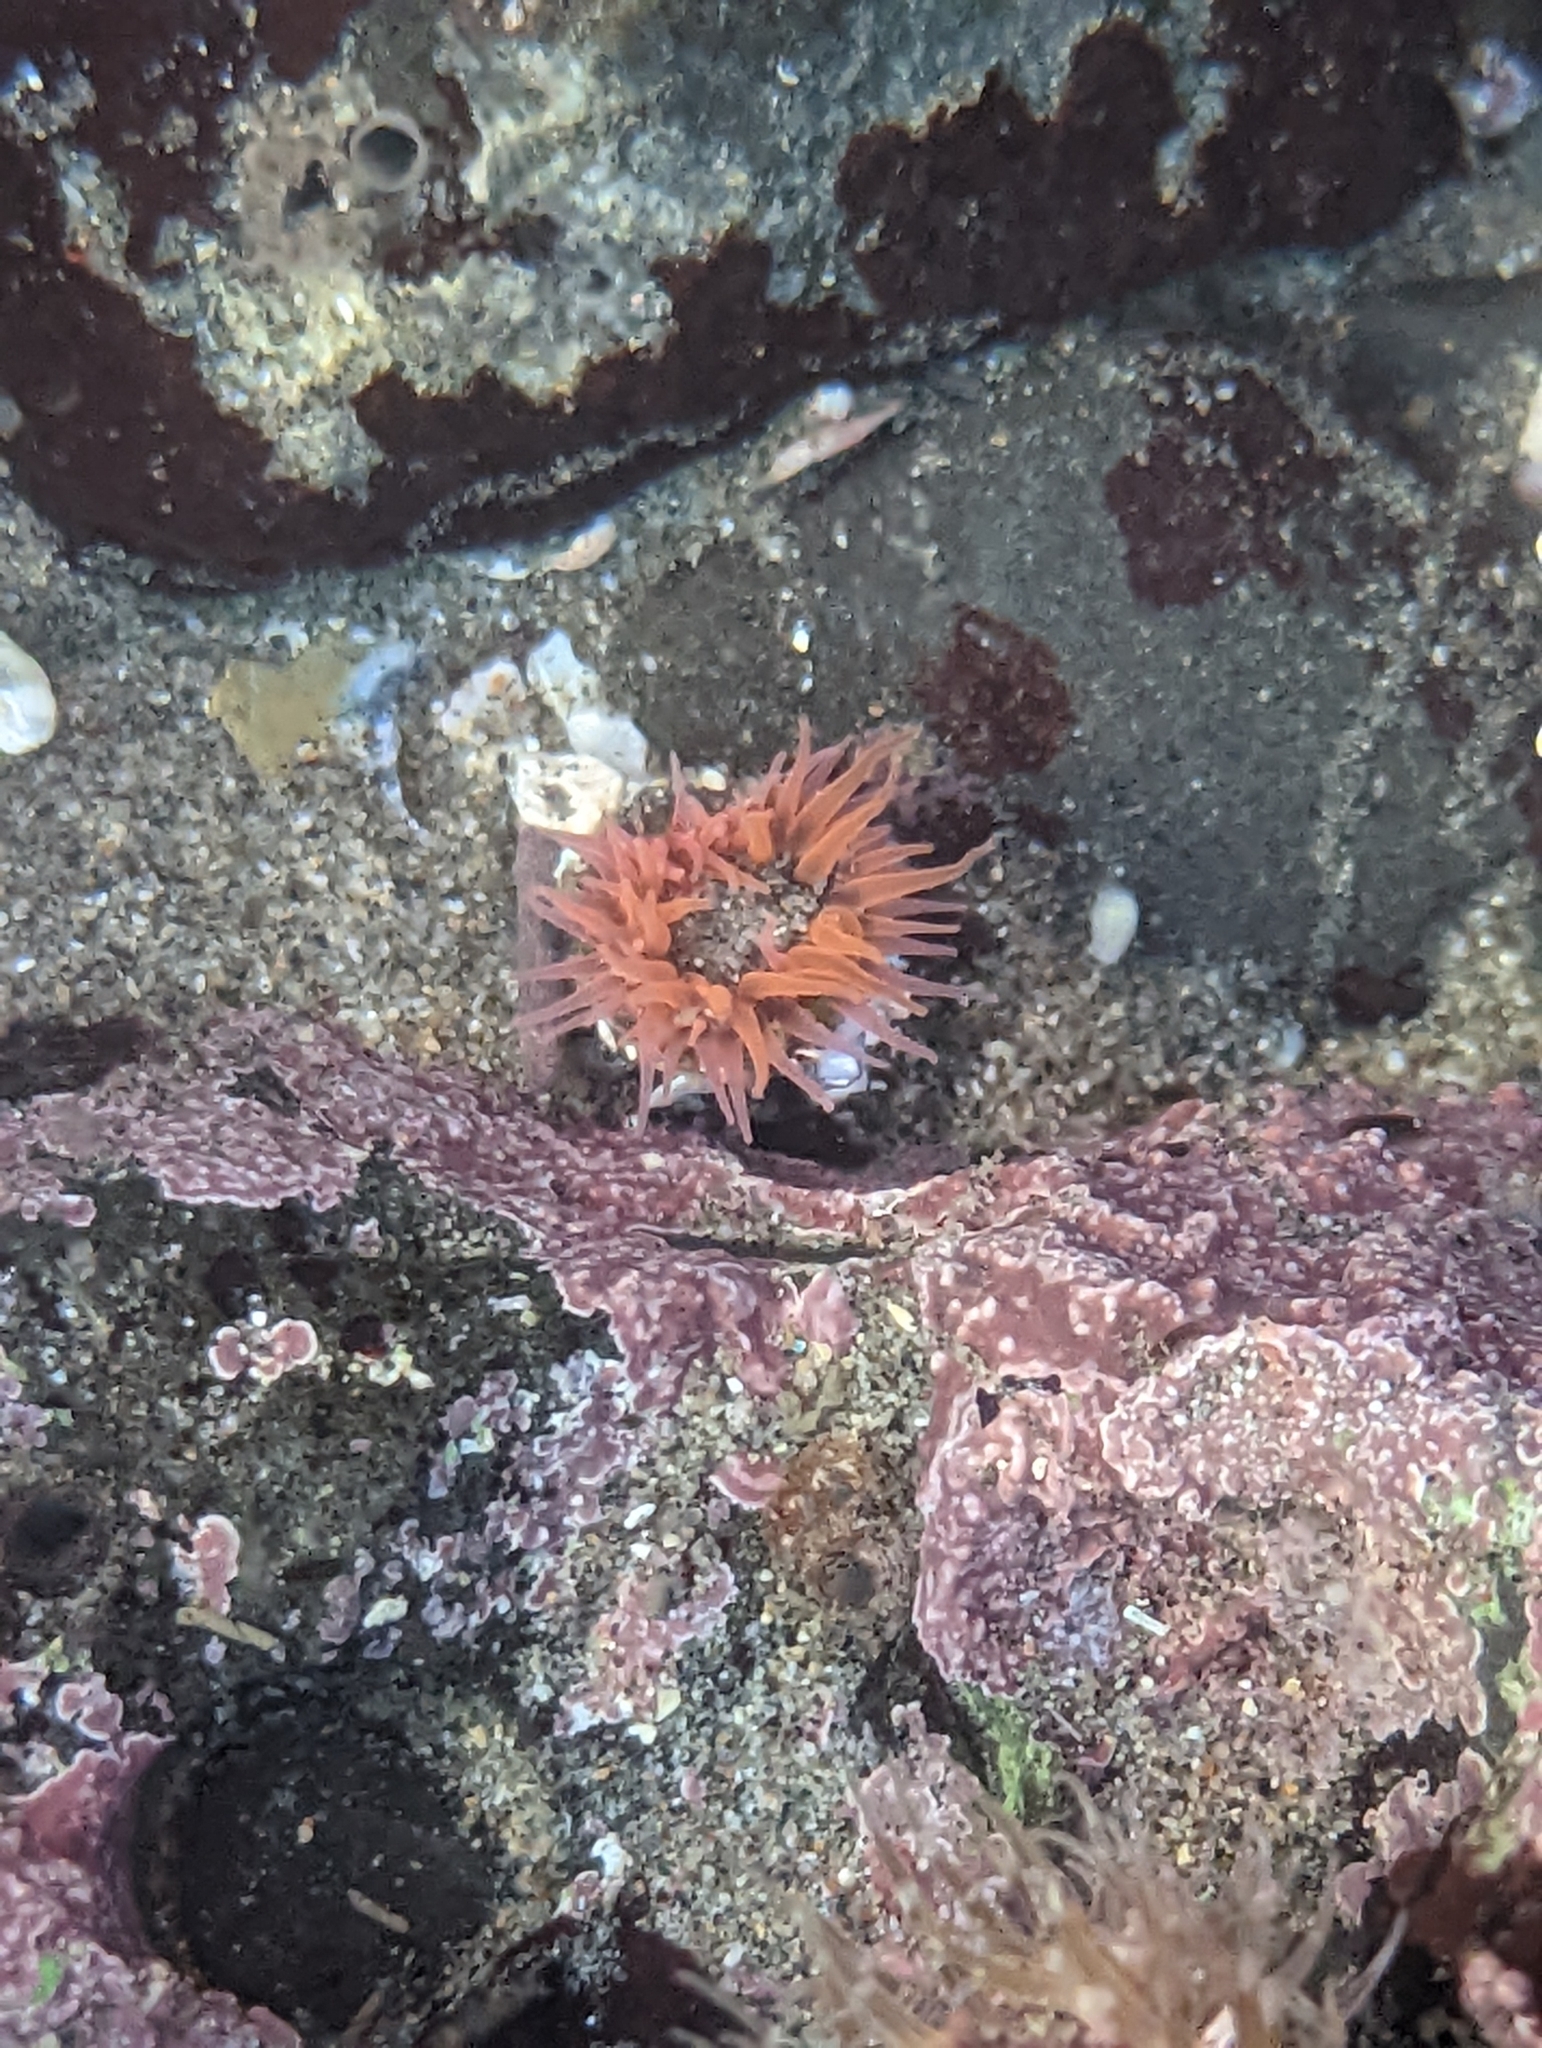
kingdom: Animalia
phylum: Cnidaria
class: Anthozoa
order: Actiniaria
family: Actiniidae
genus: Anthopleura
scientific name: Anthopleura artemisia
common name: Buried sea anemone
